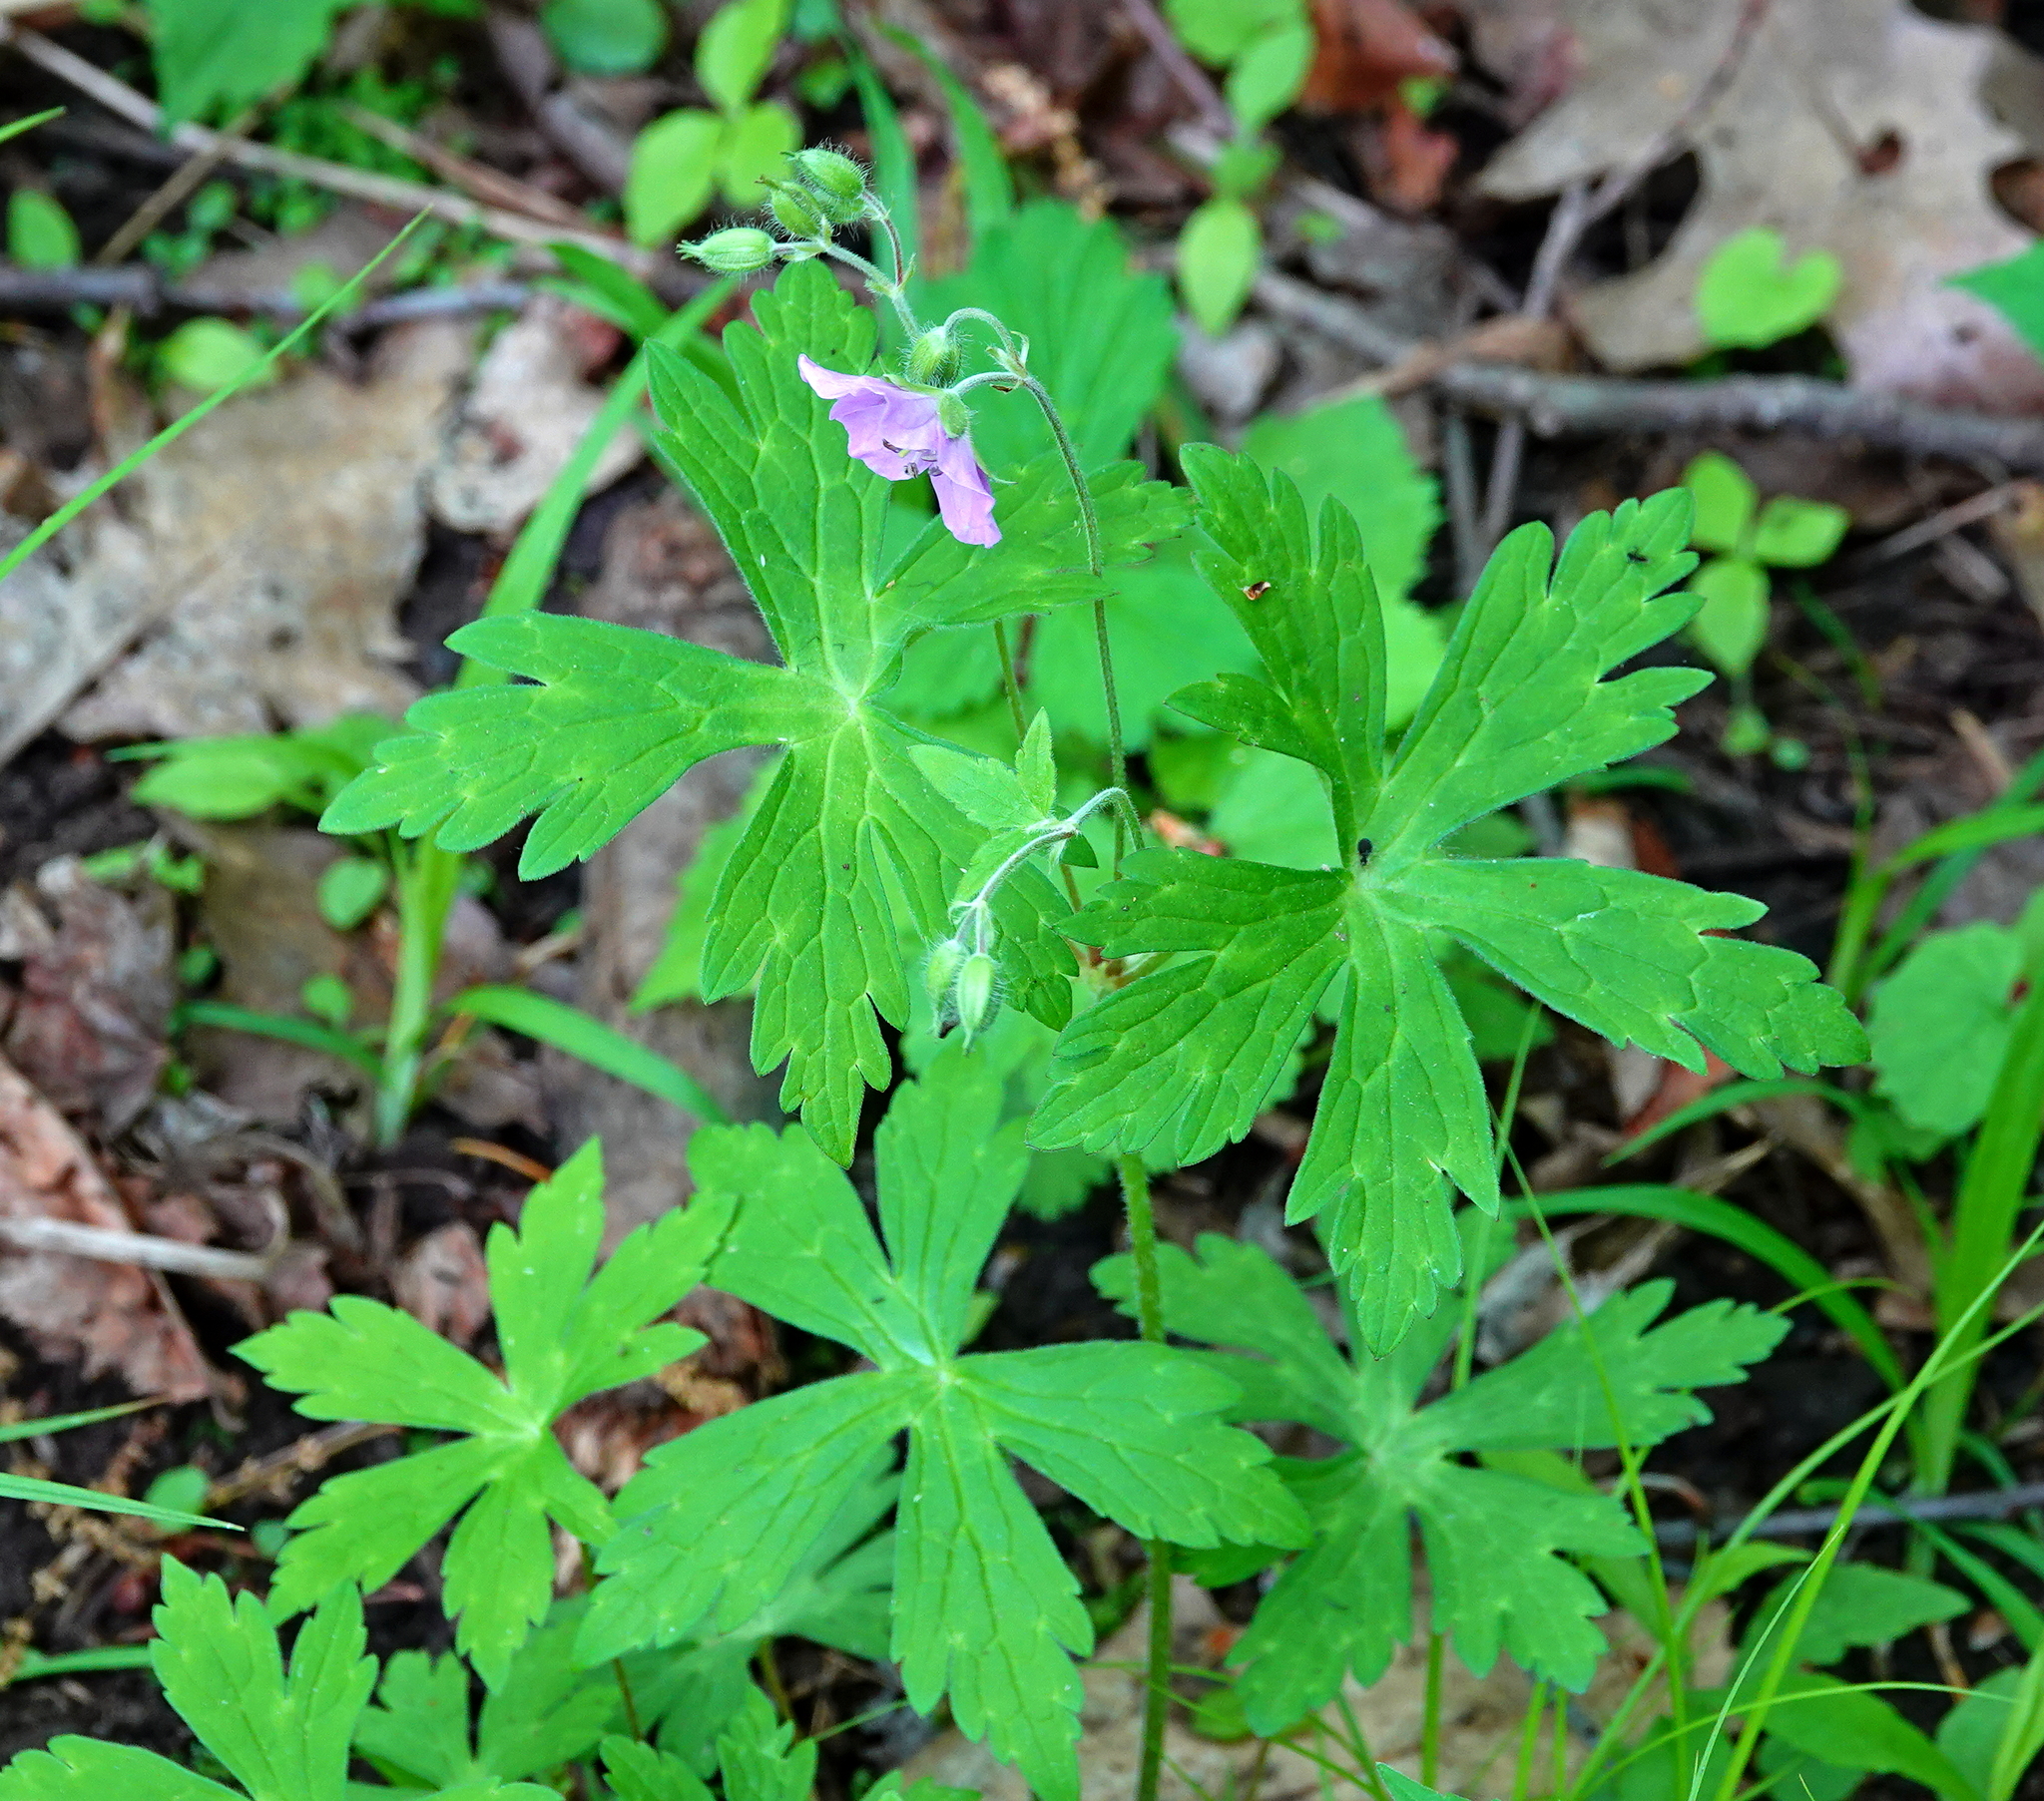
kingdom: Plantae
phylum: Tracheophyta
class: Magnoliopsida
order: Geraniales
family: Geraniaceae
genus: Geranium
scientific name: Geranium maculatum
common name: Spotted geranium
